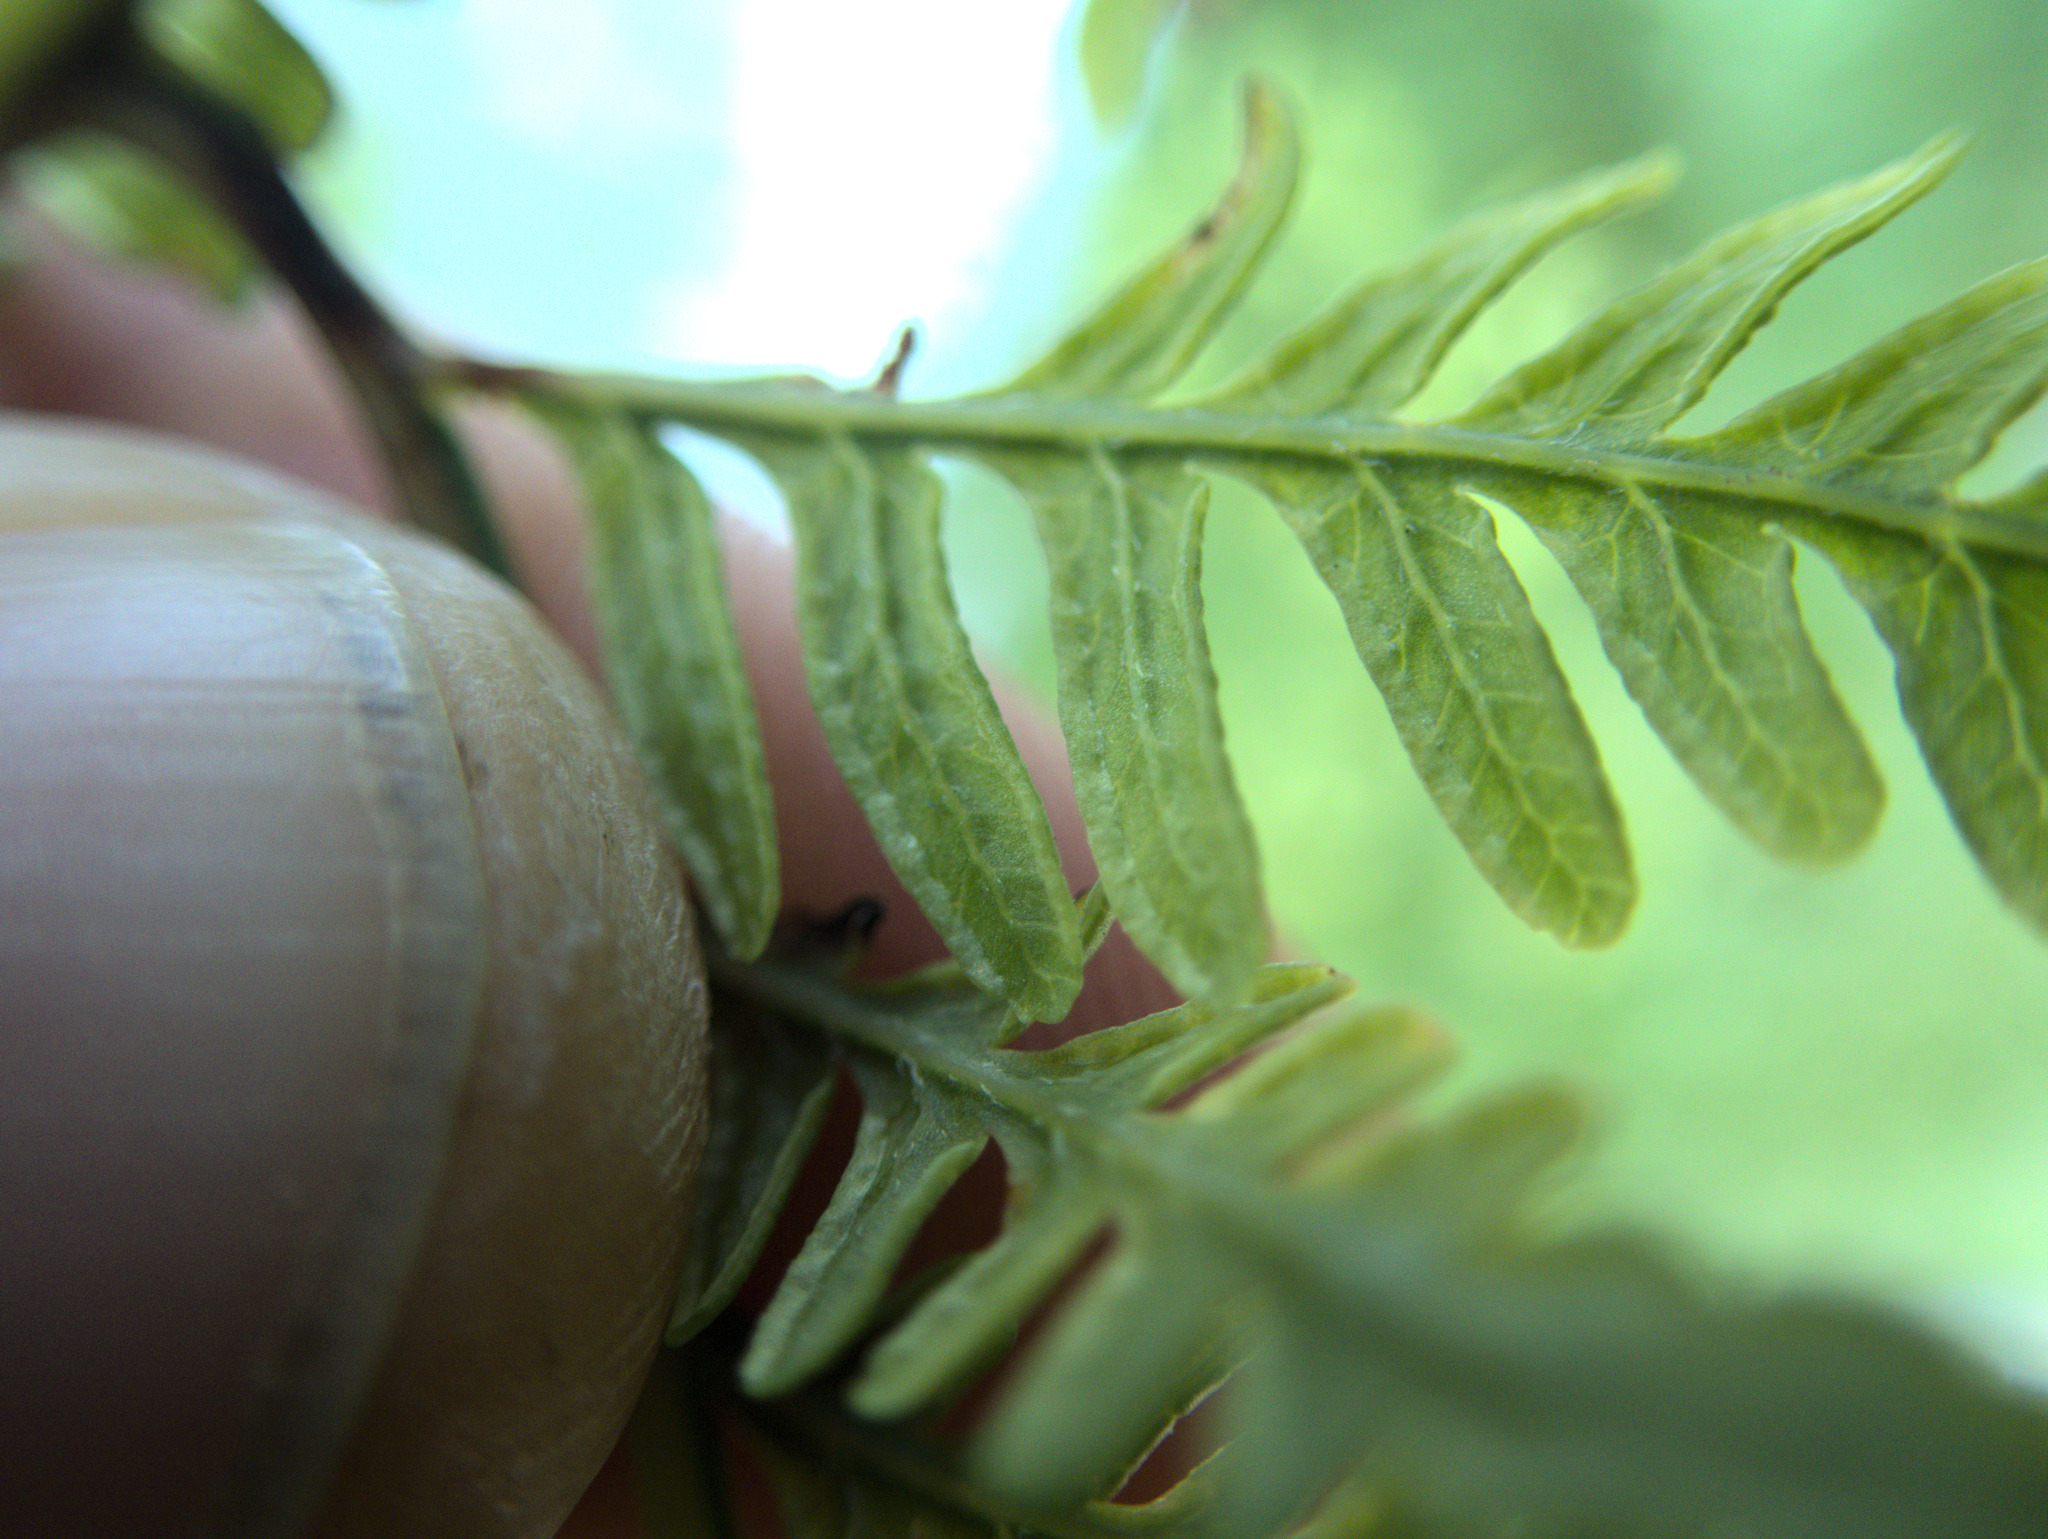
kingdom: Plantae
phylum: Tracheophyta
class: Polypodiopsida
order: Polypodiales
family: Pteridaceae
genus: Pteris
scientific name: Pteris tremula
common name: Australian brake
